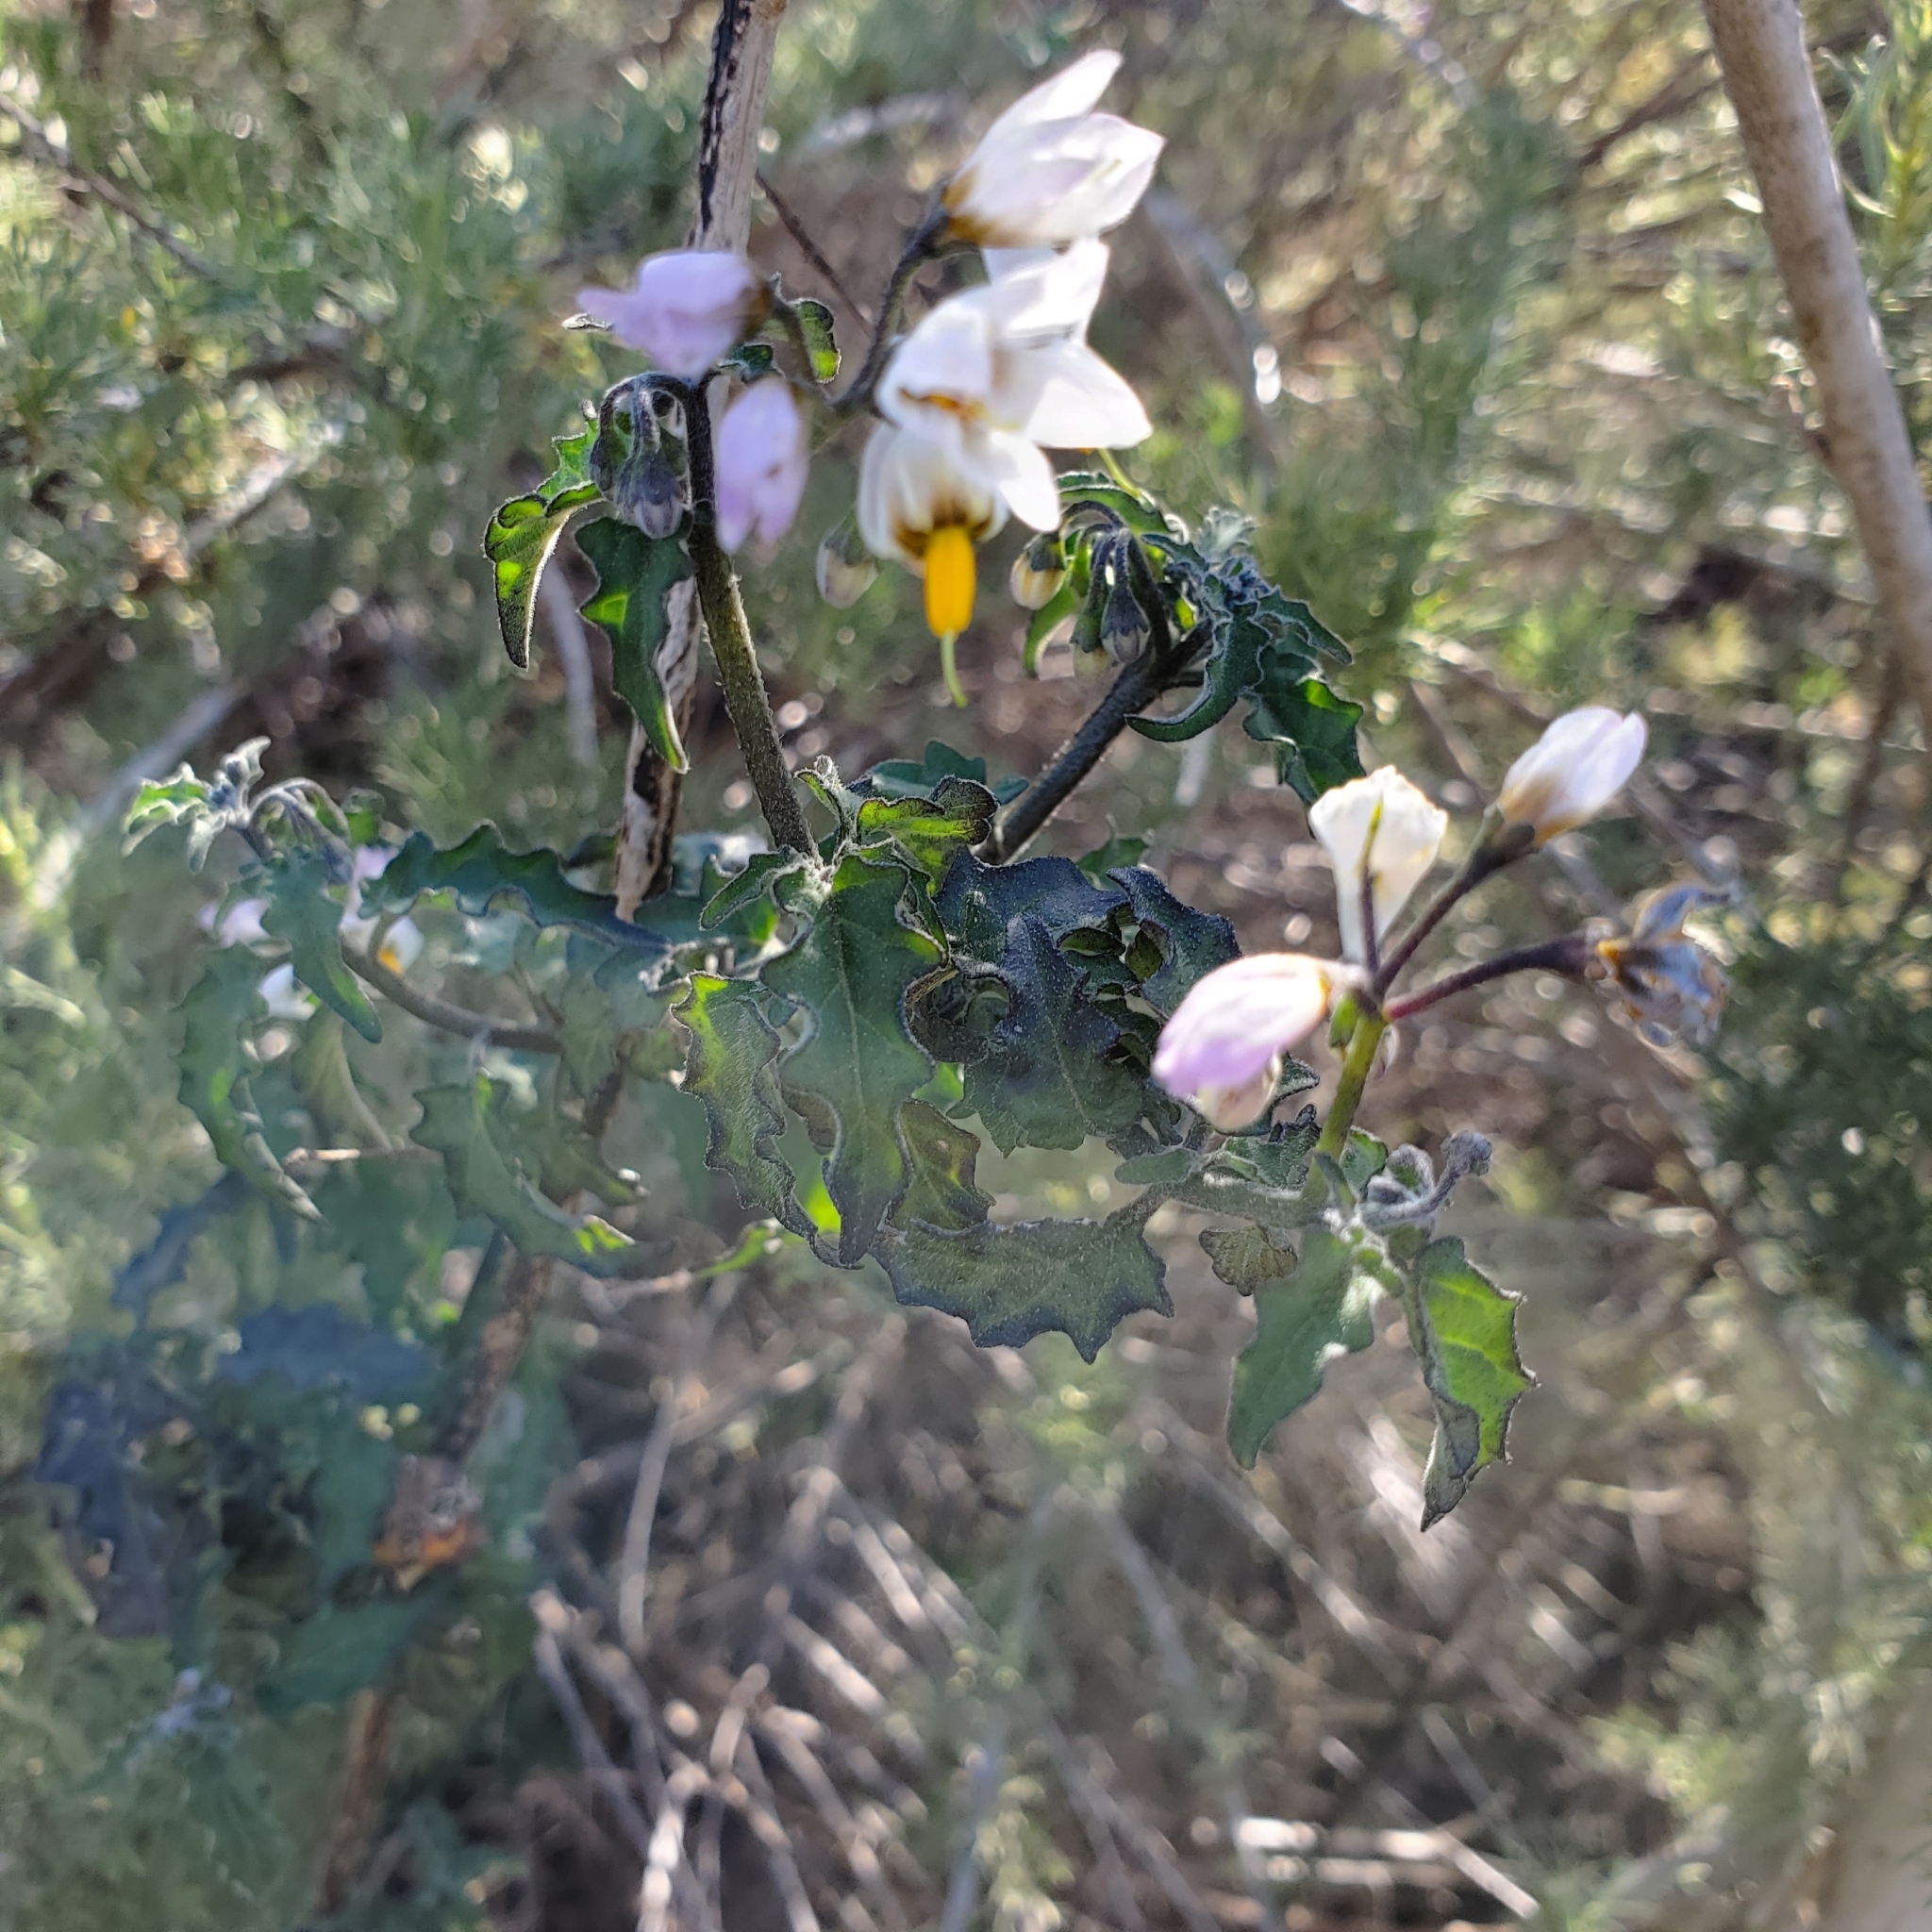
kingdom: Plantae
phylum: Tracheophyta
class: Magnoliopsida
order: Solanales
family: Solanaceae
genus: Solanum
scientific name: Solanum douglasii
